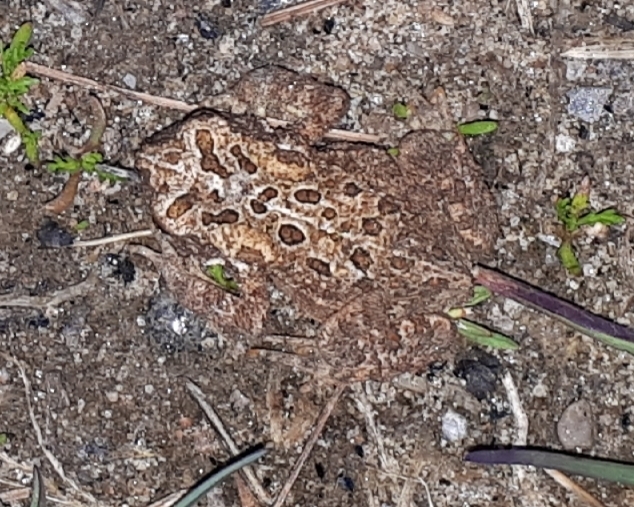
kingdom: Animalia
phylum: Chordata
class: Amphibia
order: Anura
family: Bufonidae
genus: Anaxyrus
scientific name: Anaxyrus americanus
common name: American toad
